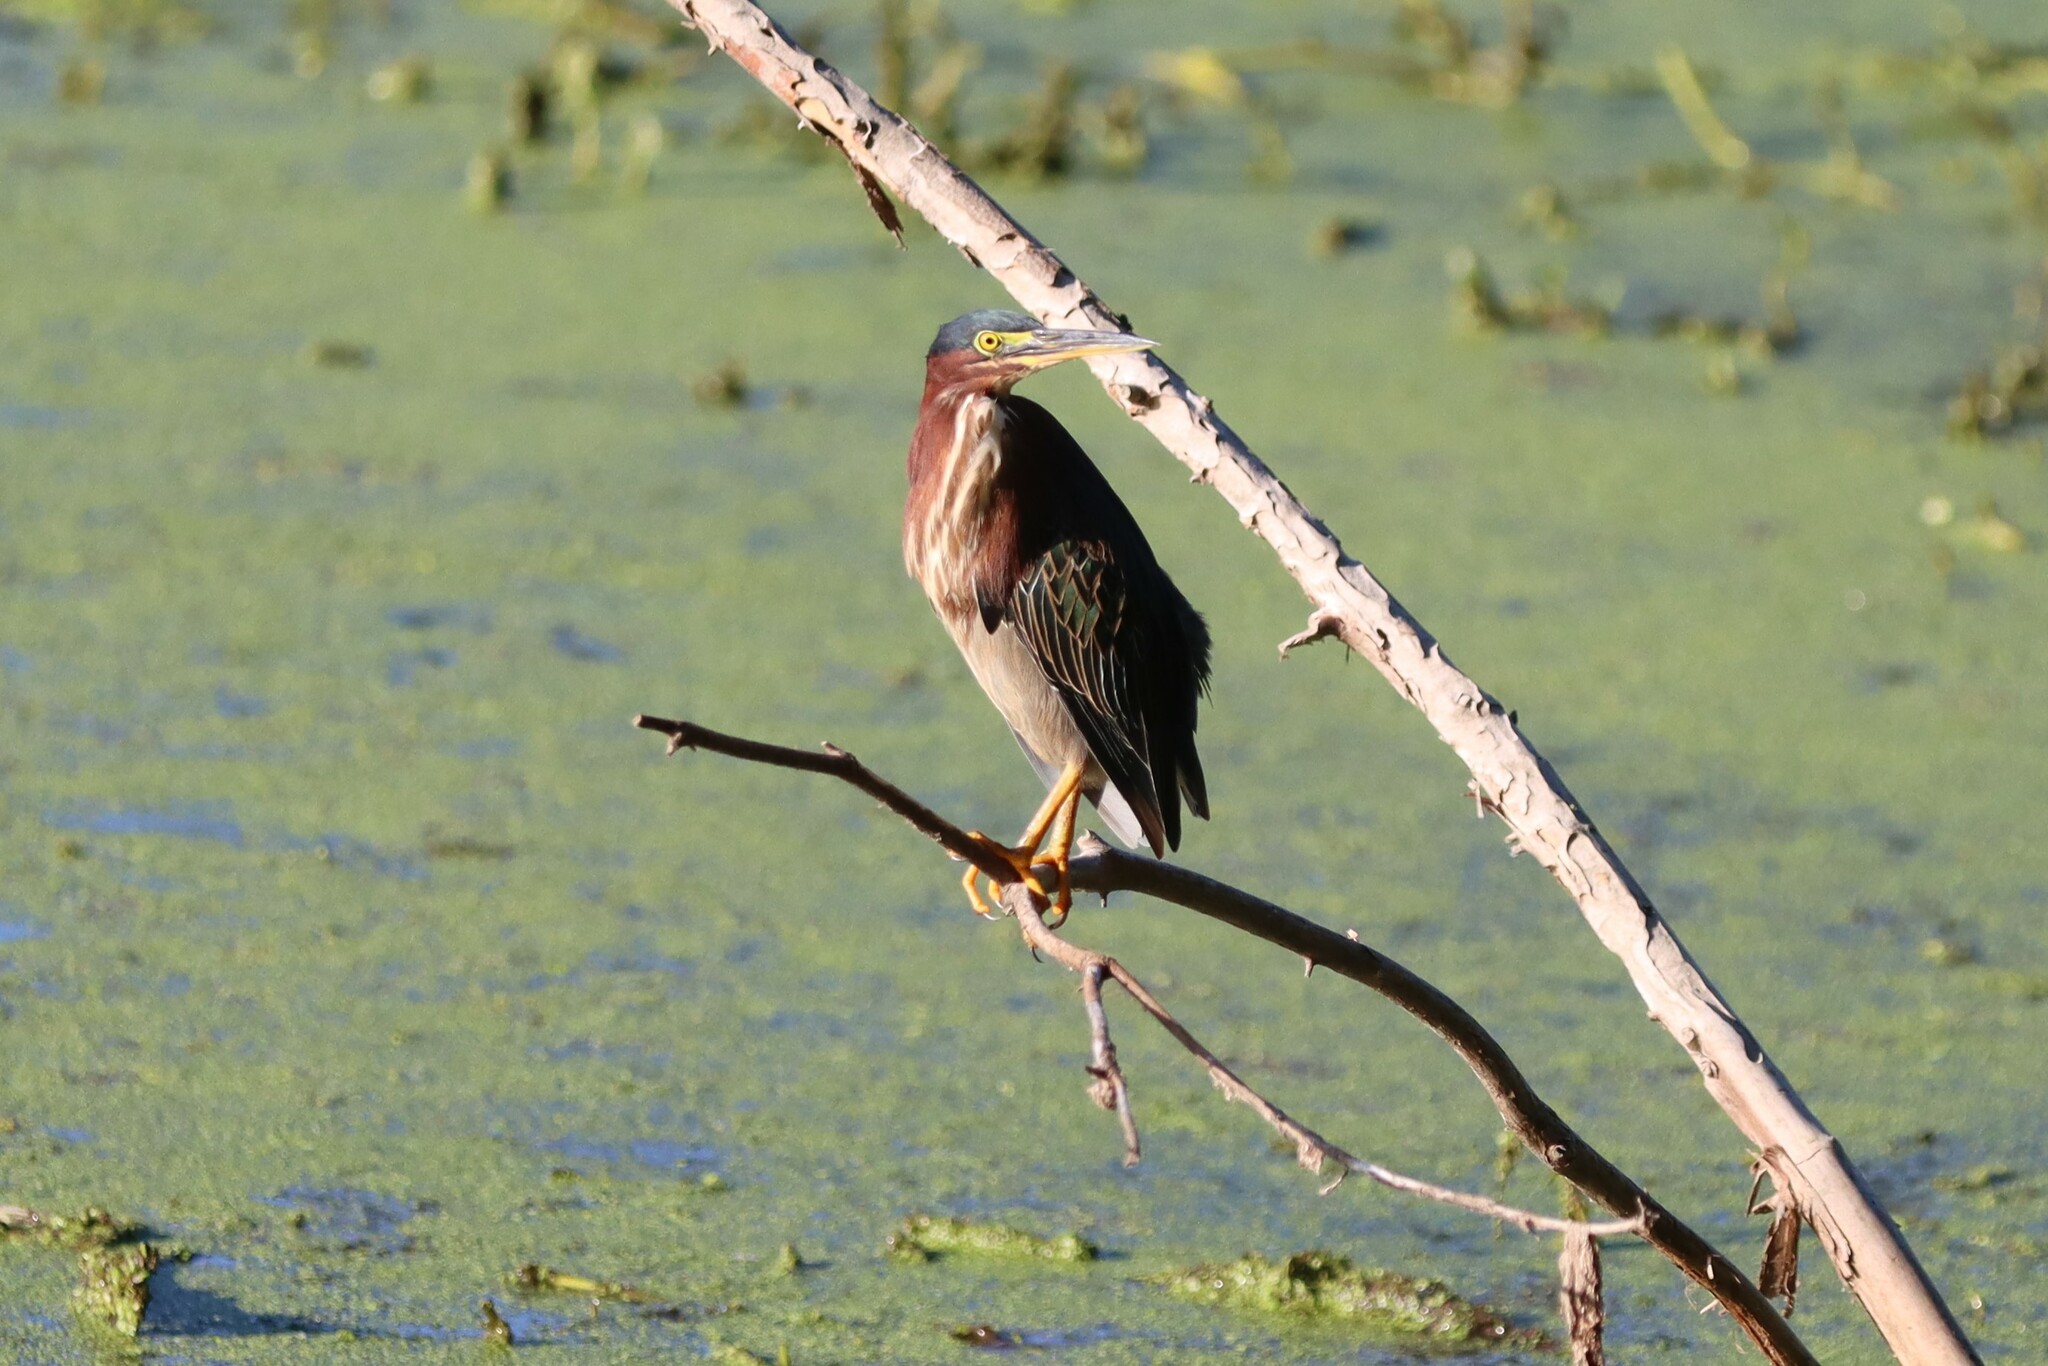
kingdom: Animalia
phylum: Chordata
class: Aves
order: Pelecaniformes
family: Ardeidae
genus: Butorides
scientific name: Butorides virescens
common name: Green heron
